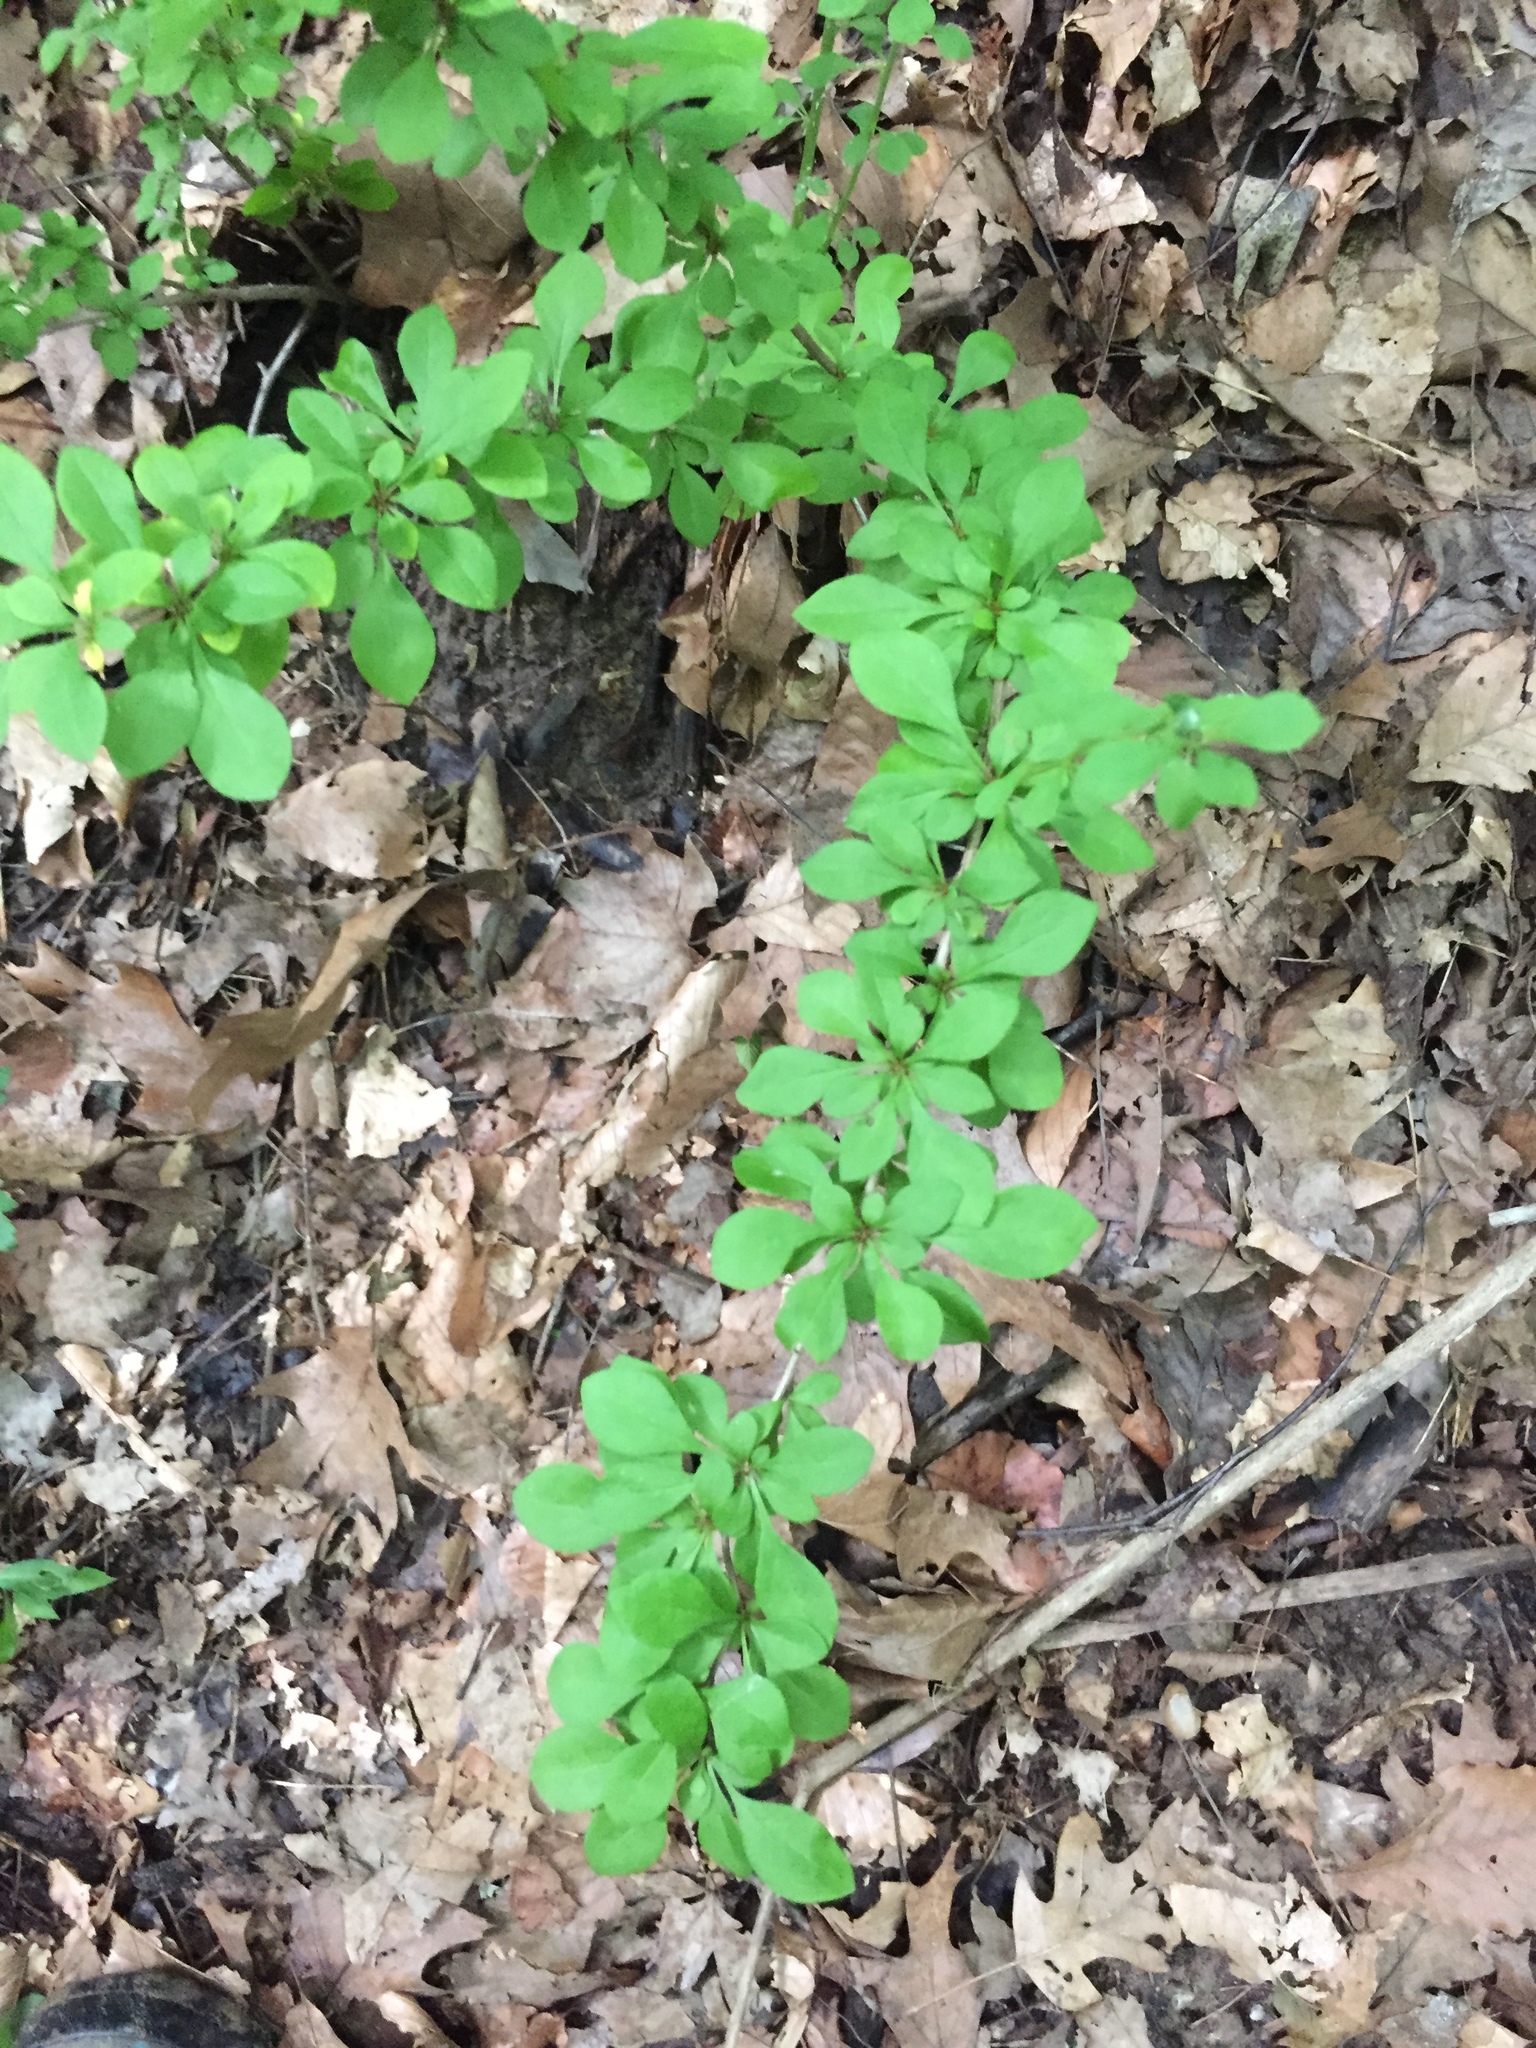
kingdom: Plantae
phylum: Tracheophyta
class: Magnoliopsida
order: Ranunculales
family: Berberidaceae
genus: Berberis
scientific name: Berberis thunbergii
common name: Japanese barberry
